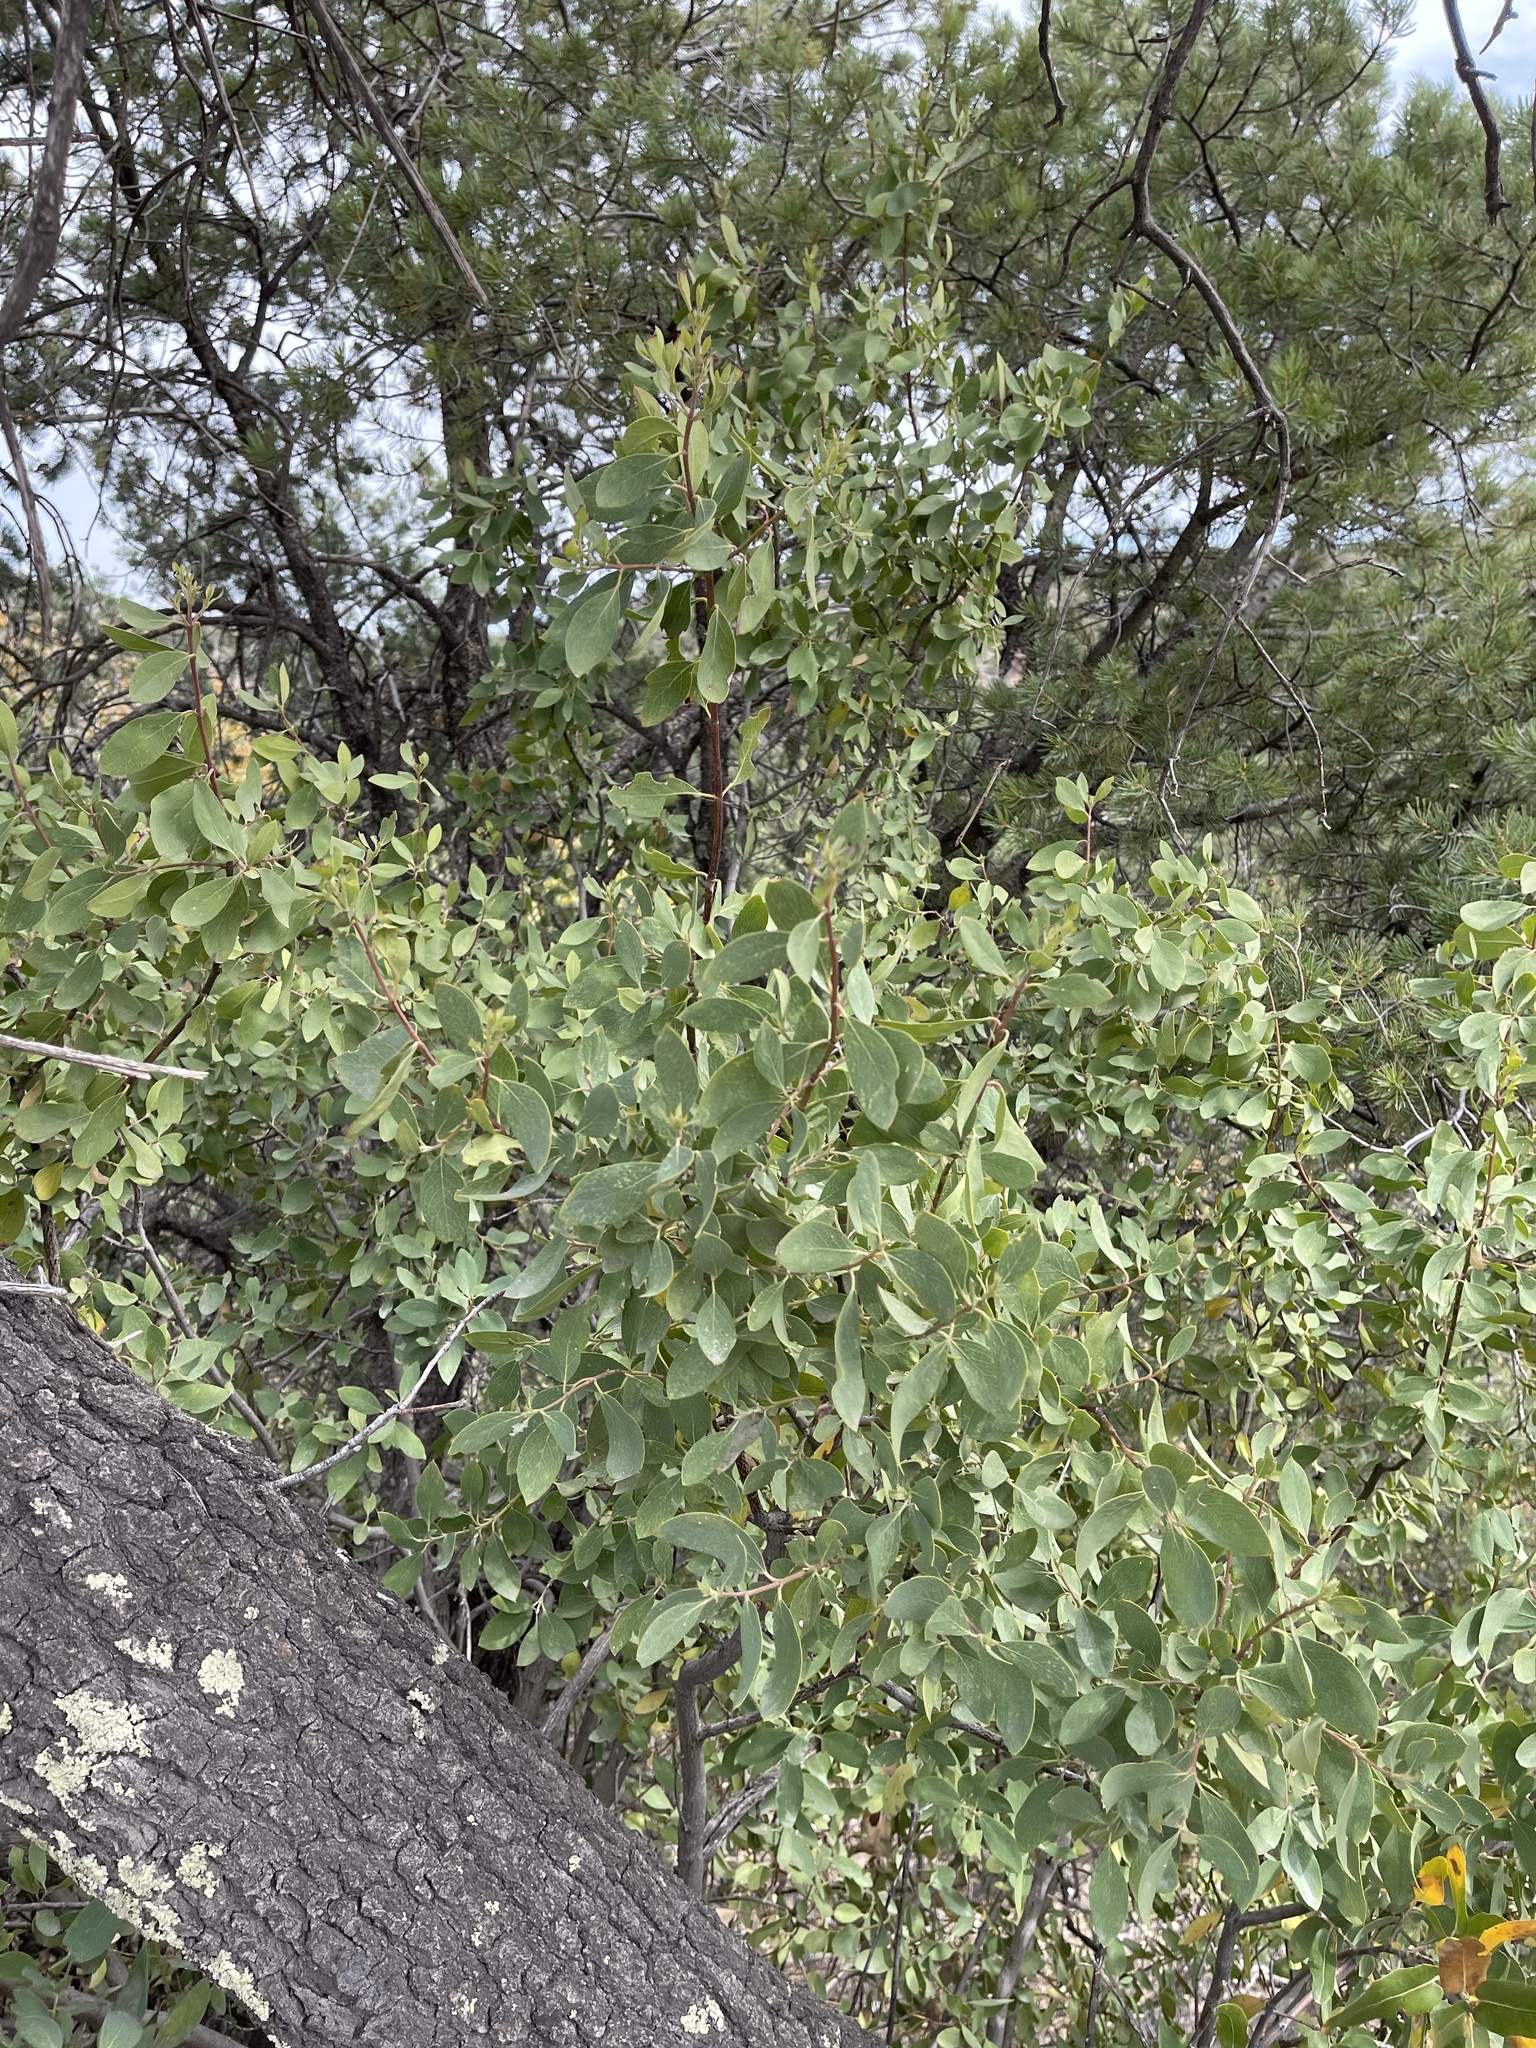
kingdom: Plantae
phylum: Tracheophyta
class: Magnoliopsida
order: Garryales
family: Garryaceae
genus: Garrya
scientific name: Garrya wrightii
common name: Wright's silktassel
